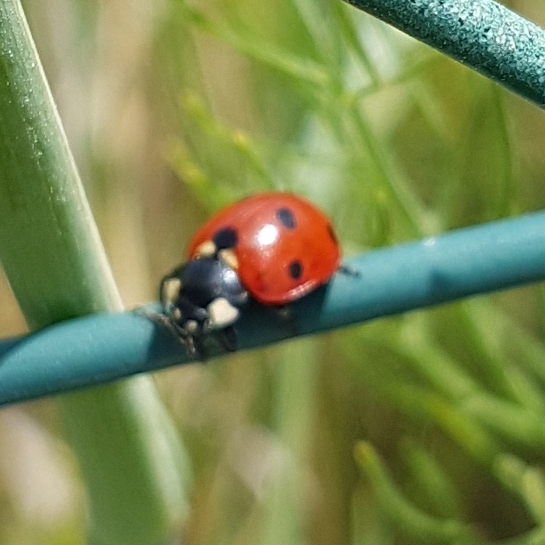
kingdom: Animalia
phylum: Arthropoda
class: Insecta
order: Coleoptera
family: Coccinellidae
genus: Coccinella
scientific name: Coccinella septempunctata
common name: Sevenspotted lady beetle
